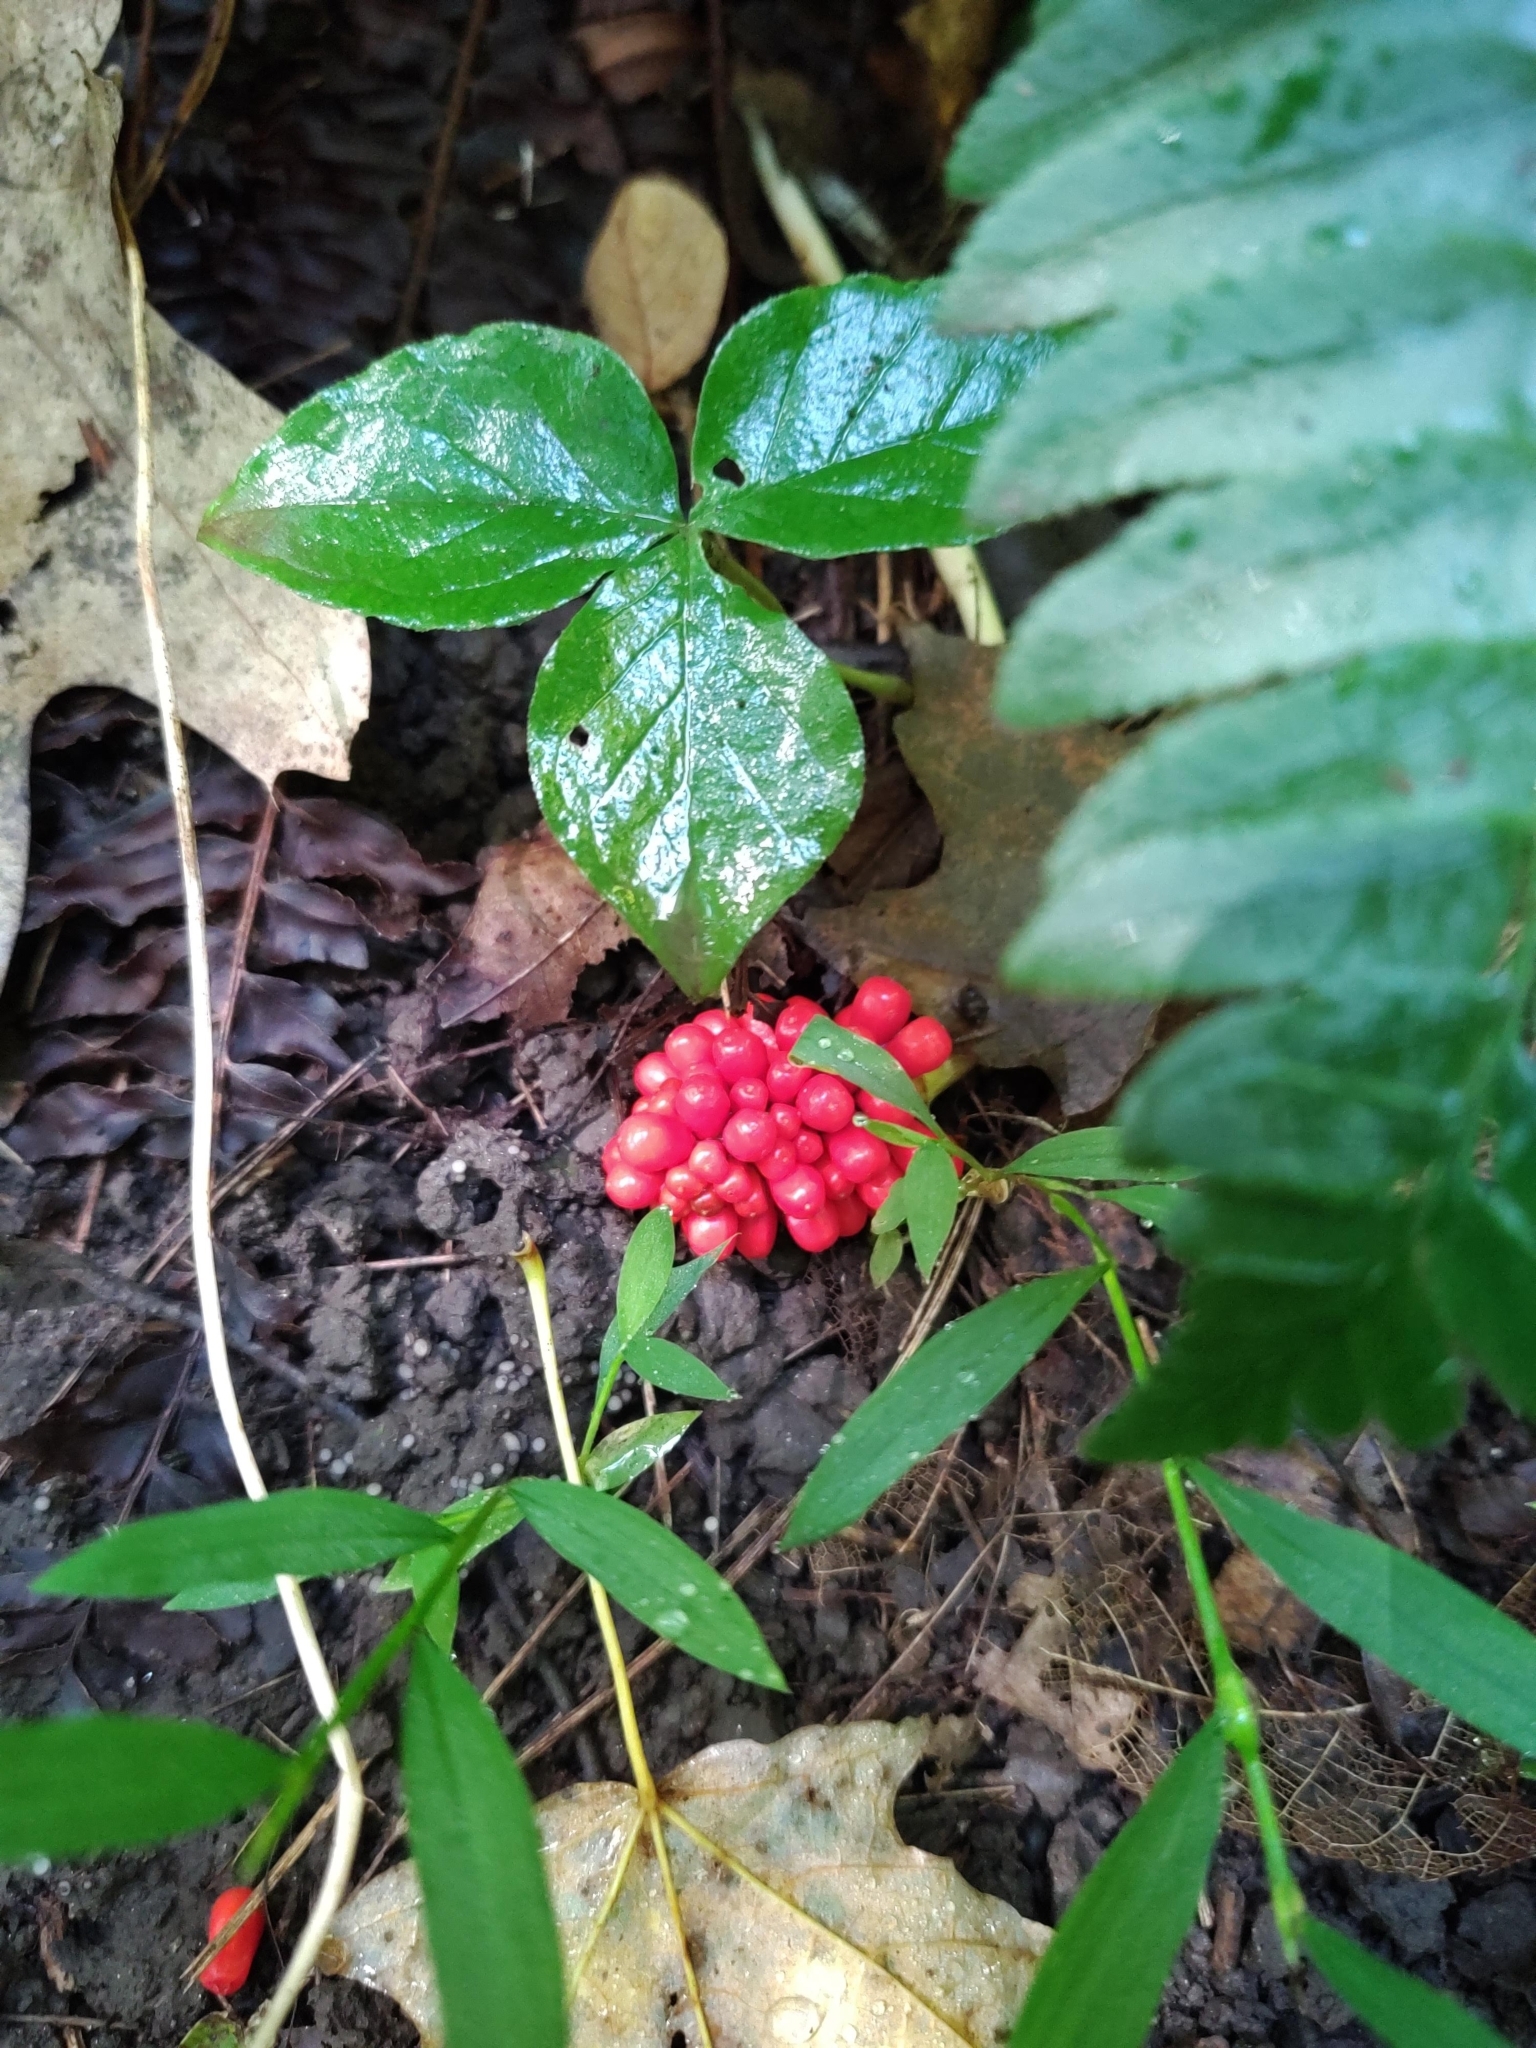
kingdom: Plantae
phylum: Tracheophyta
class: Liliopsida
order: Alismatales
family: Araceae
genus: Arisaema
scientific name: Arisaema triphyllum
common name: Jack-in-the-pulpit
